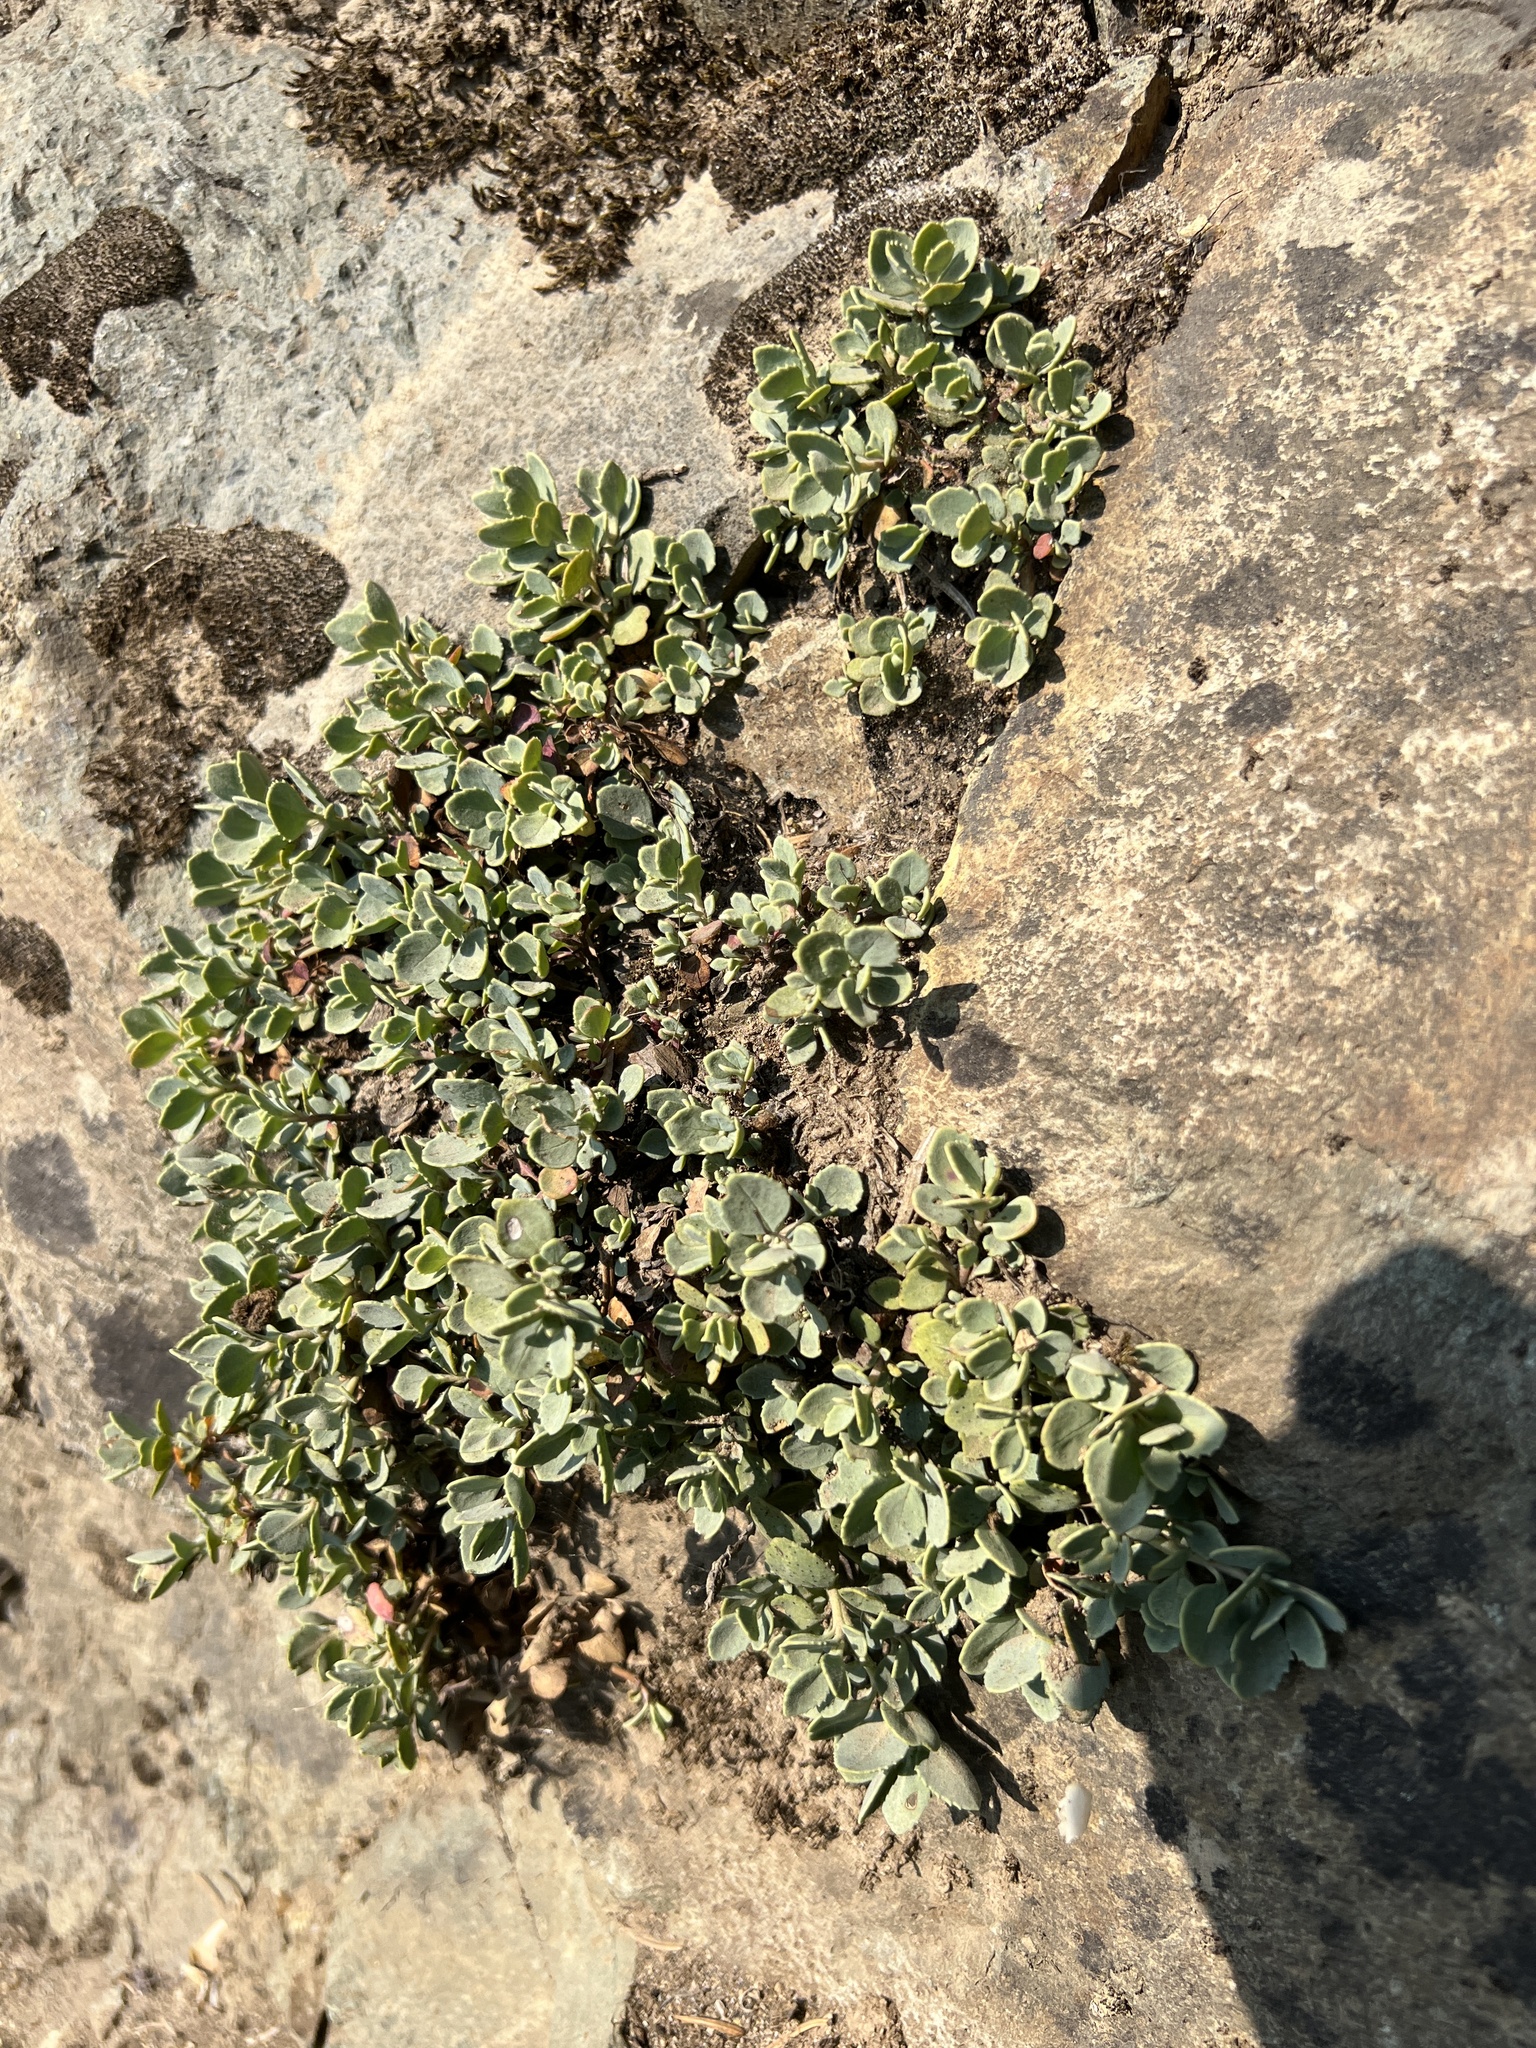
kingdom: Plantae
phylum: Tracheophyta
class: Magnoliopsida
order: Lamiales
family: Plantaginaceae
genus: Penstemon
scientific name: Penstemon rupicola
